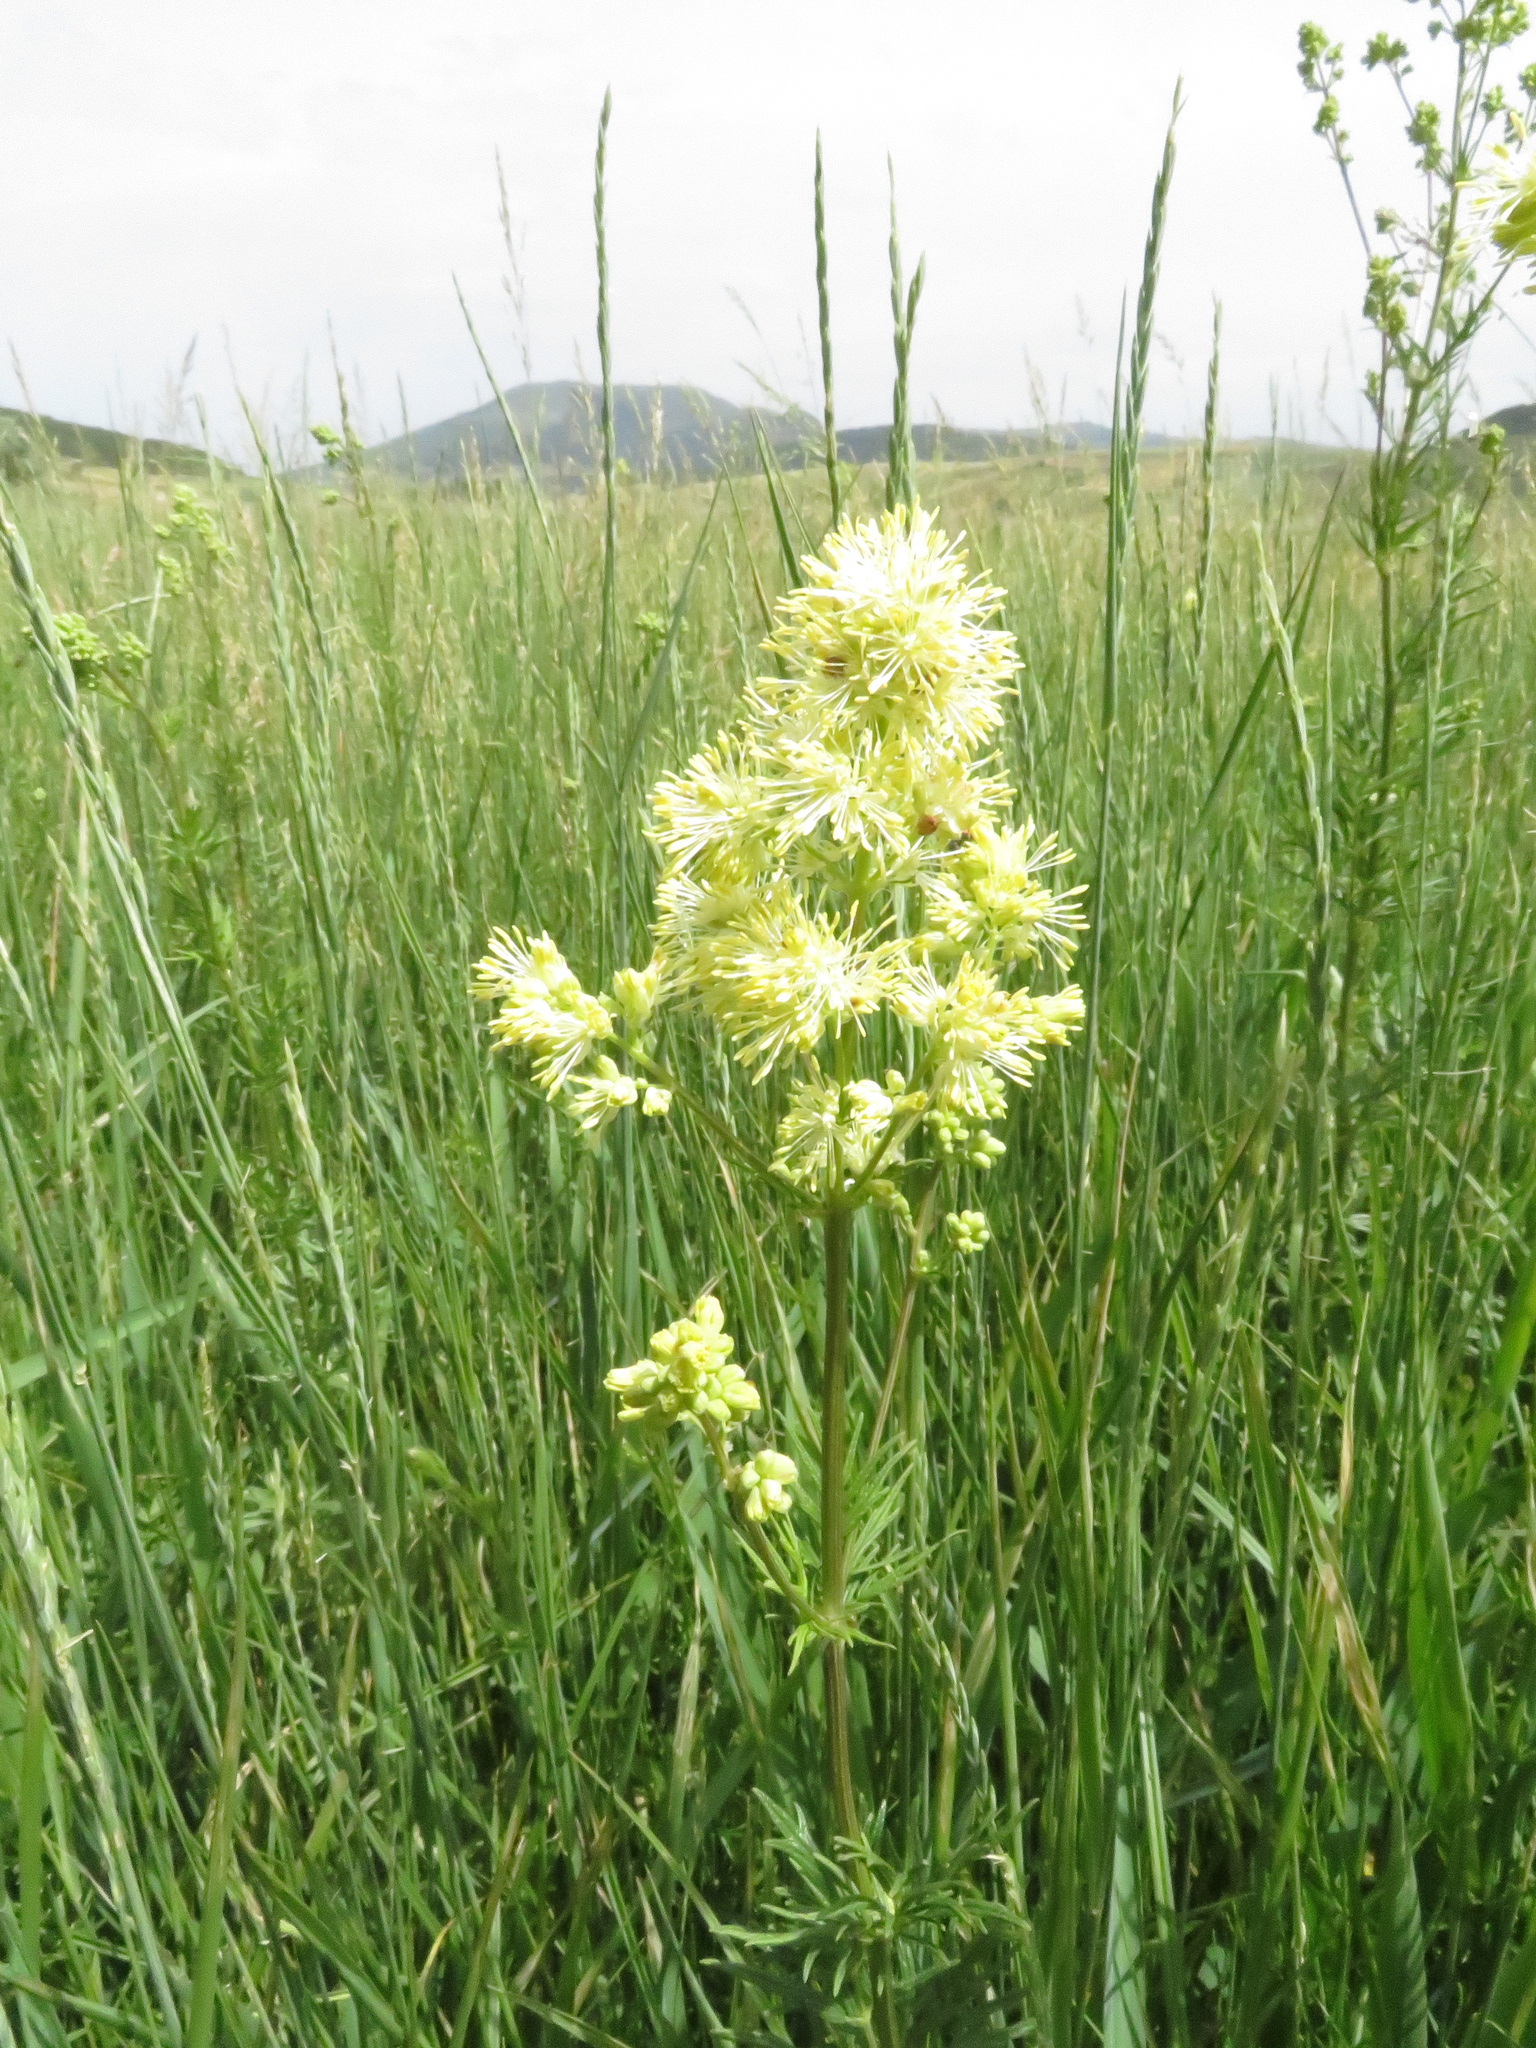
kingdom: Plantae
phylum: Tracheophyta
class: Magnoliopsida
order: Ranunculales
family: Ranunculaceae
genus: Thalictrum
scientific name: Thalictrum lucidum
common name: Shining meadow-rue
